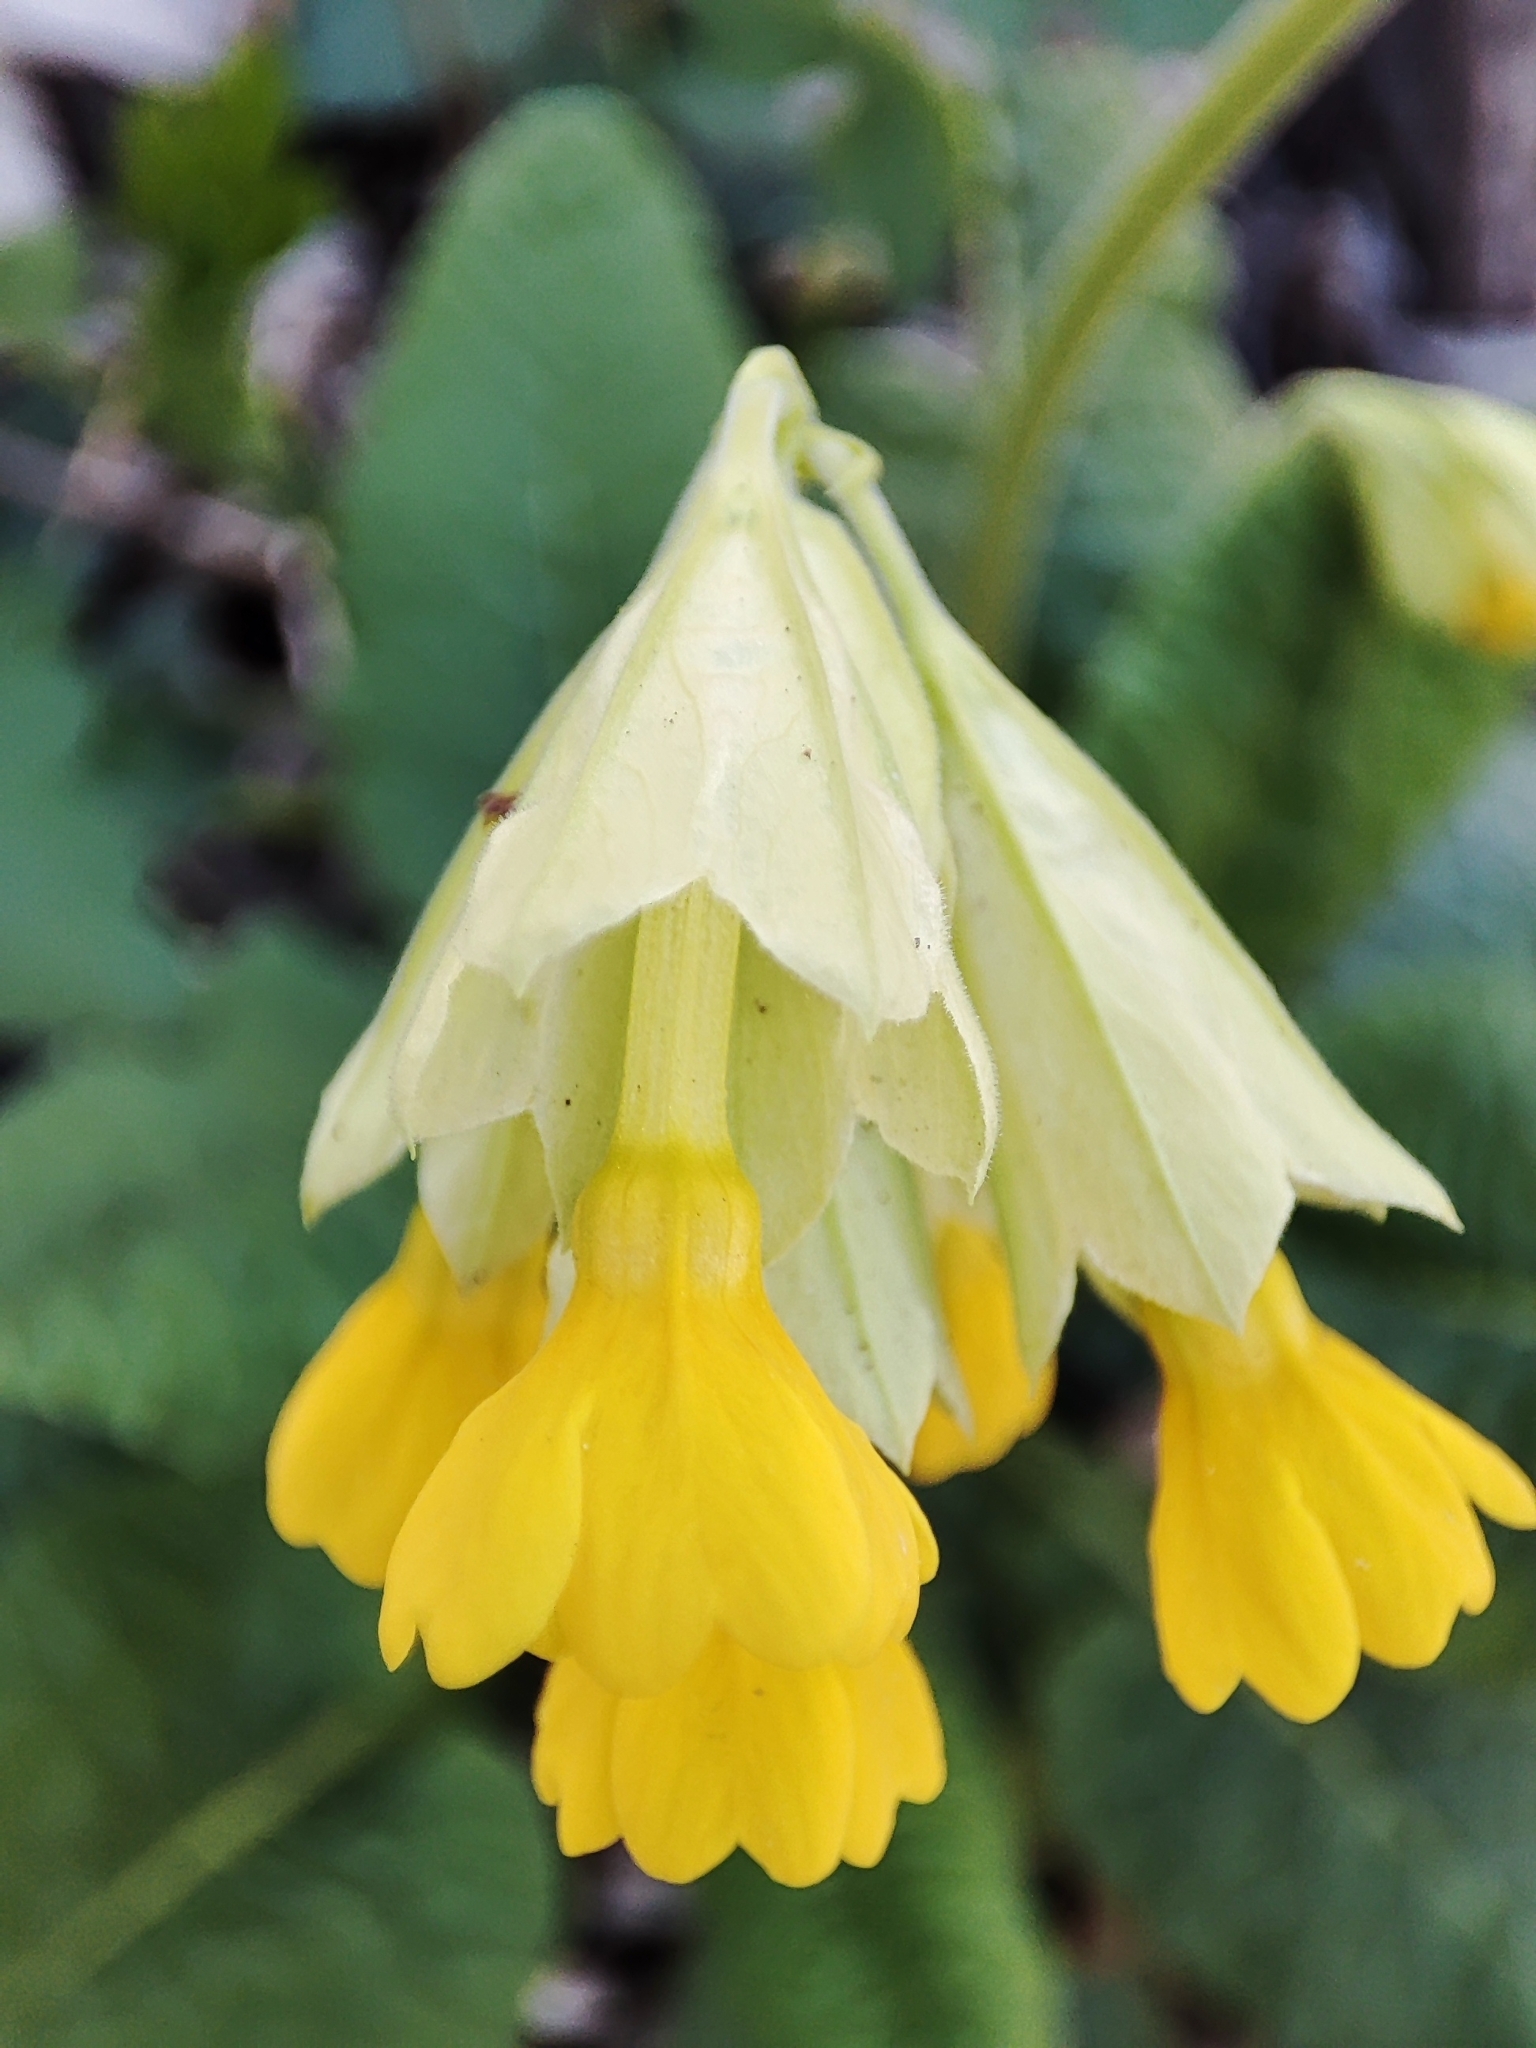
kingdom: Plantae
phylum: Tracheophyta
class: Magnoliopsida
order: Ericales
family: Primulaceae
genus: Primula
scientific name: Primula veris
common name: Cowslip
